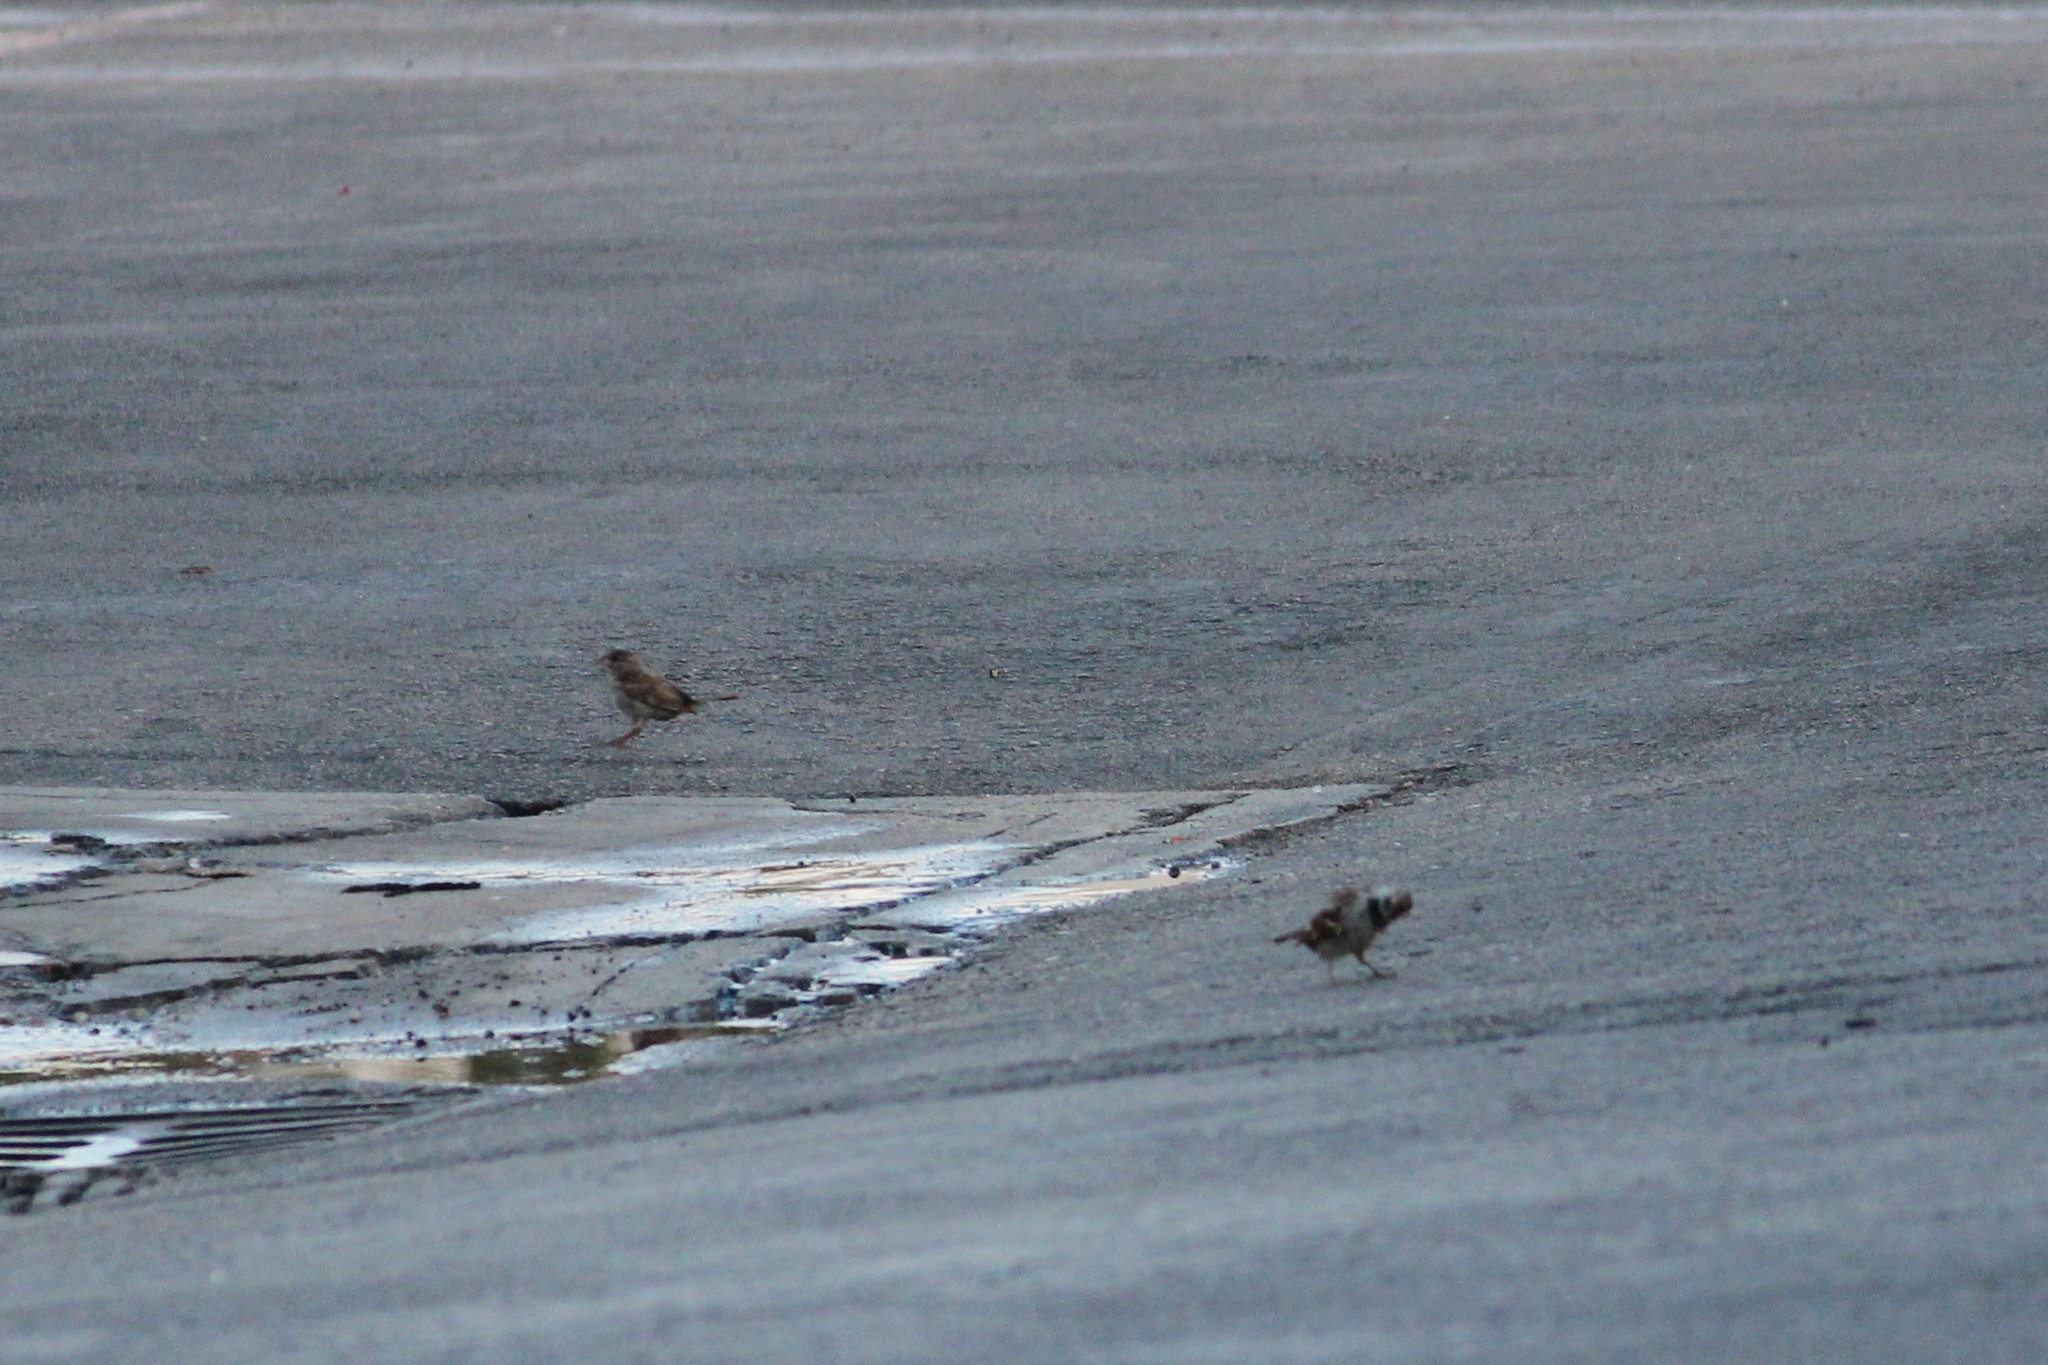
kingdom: Animalia
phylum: Chordata
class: Aves
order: Passeriformes
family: Passeridae
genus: Passer
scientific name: Passer domesticus
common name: House sparrow
